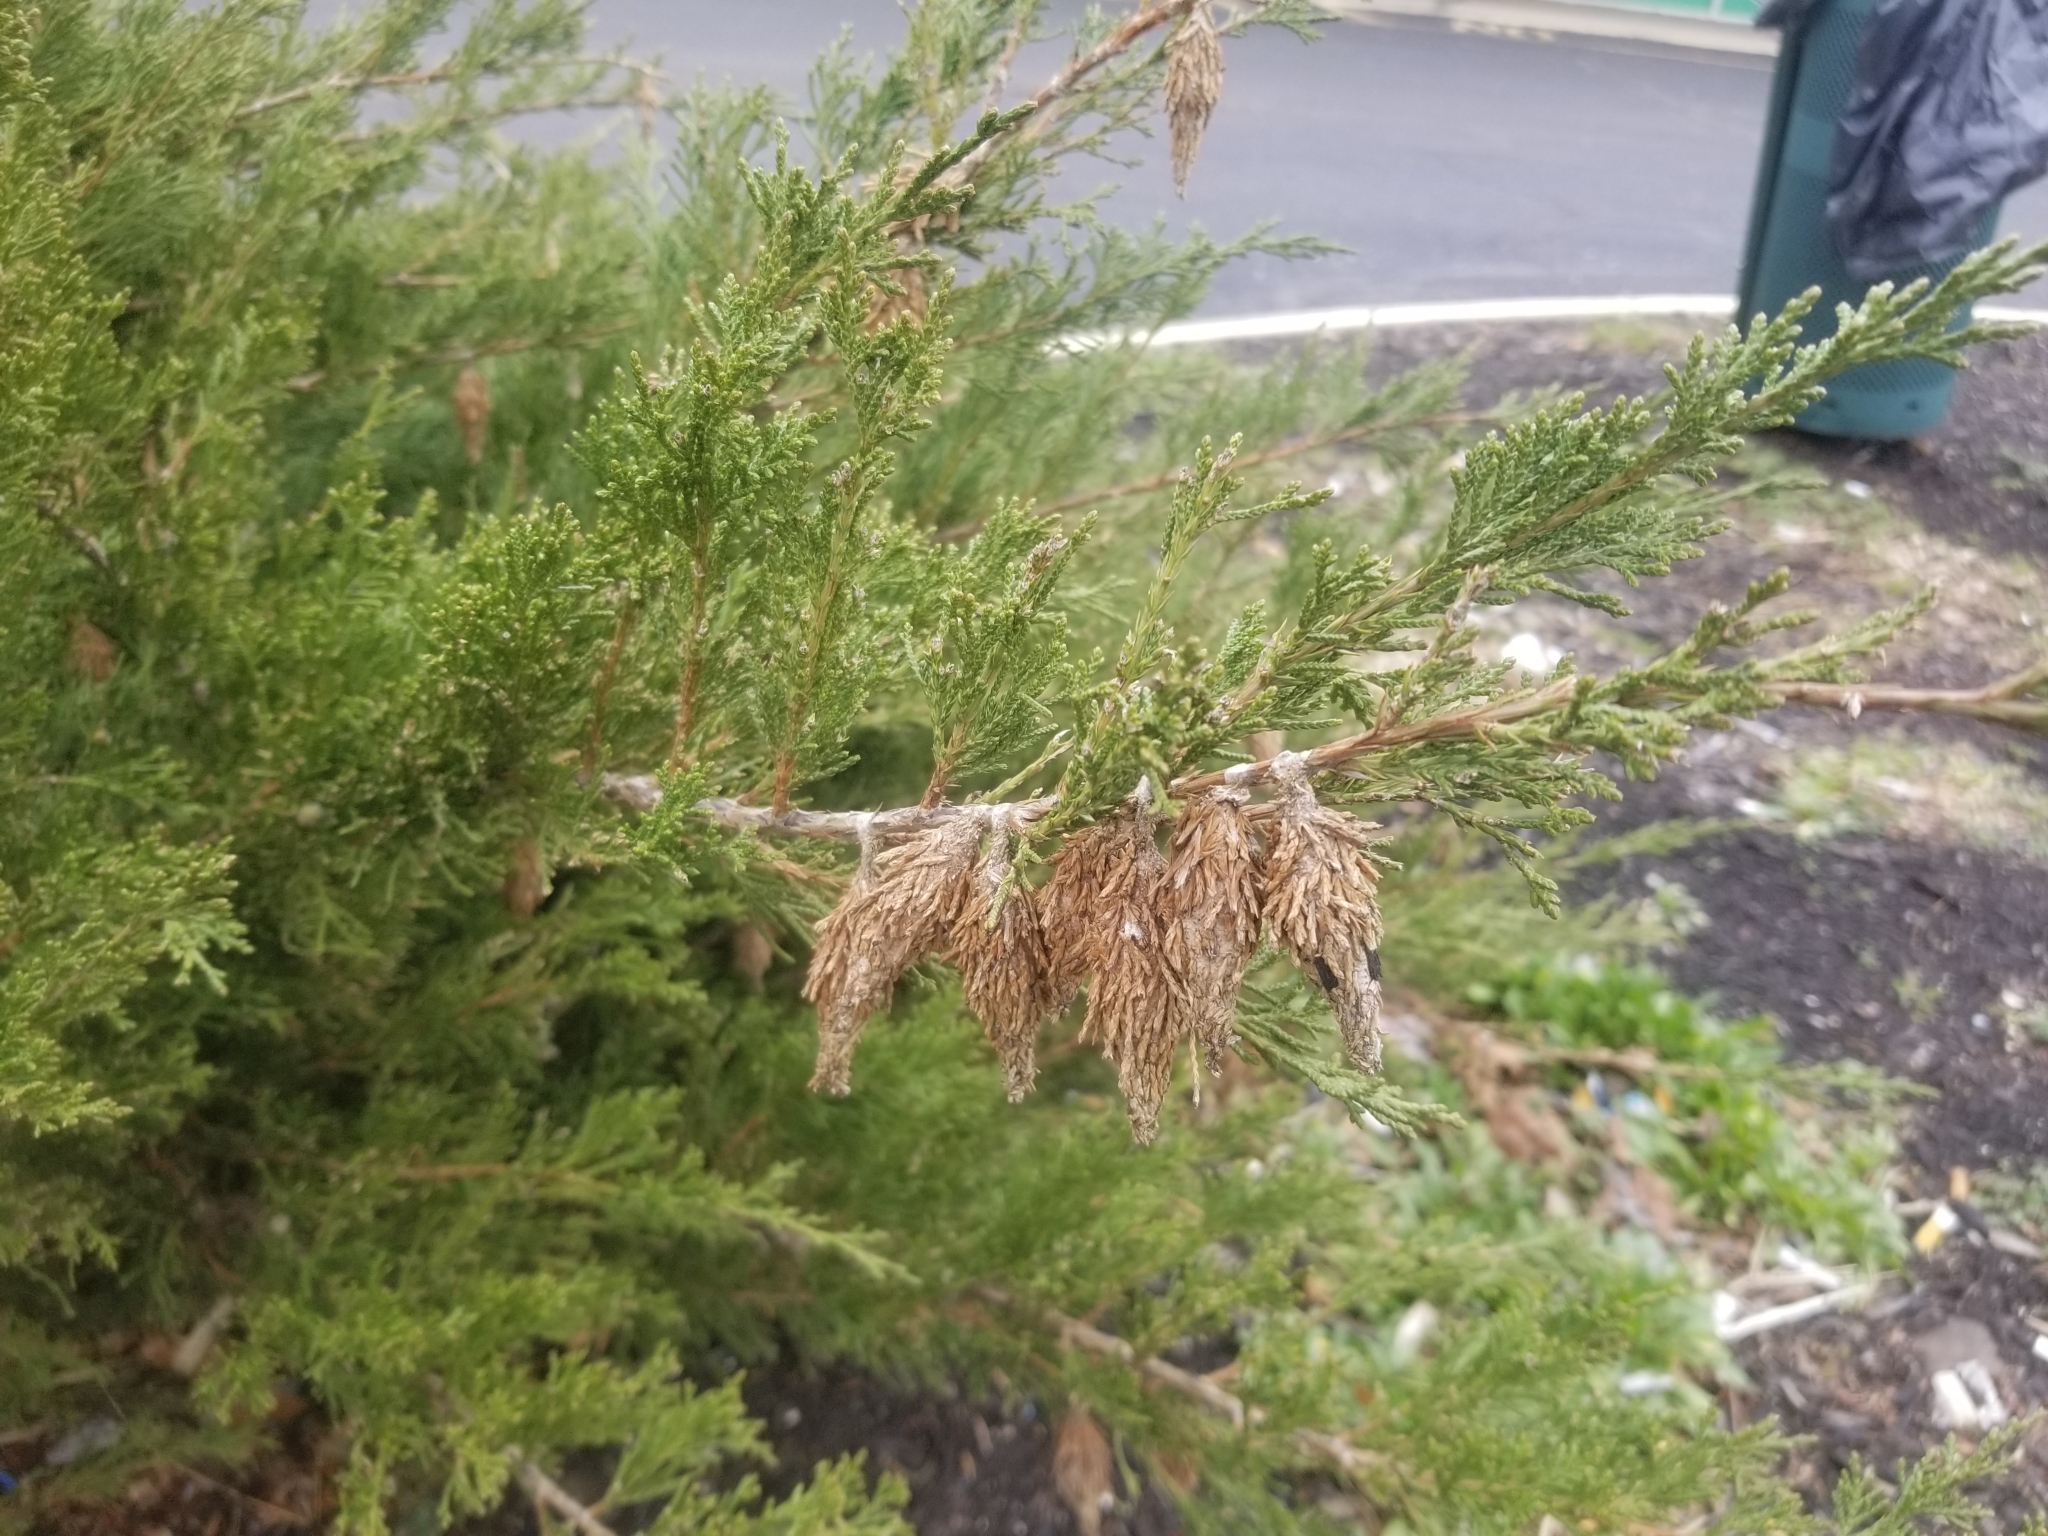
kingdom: Animalia
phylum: Arthropoda
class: Insecta
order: Lepidoptera
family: Psychidae
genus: Thyridopteryx
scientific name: Thyridopteryx ephemeraeformis
